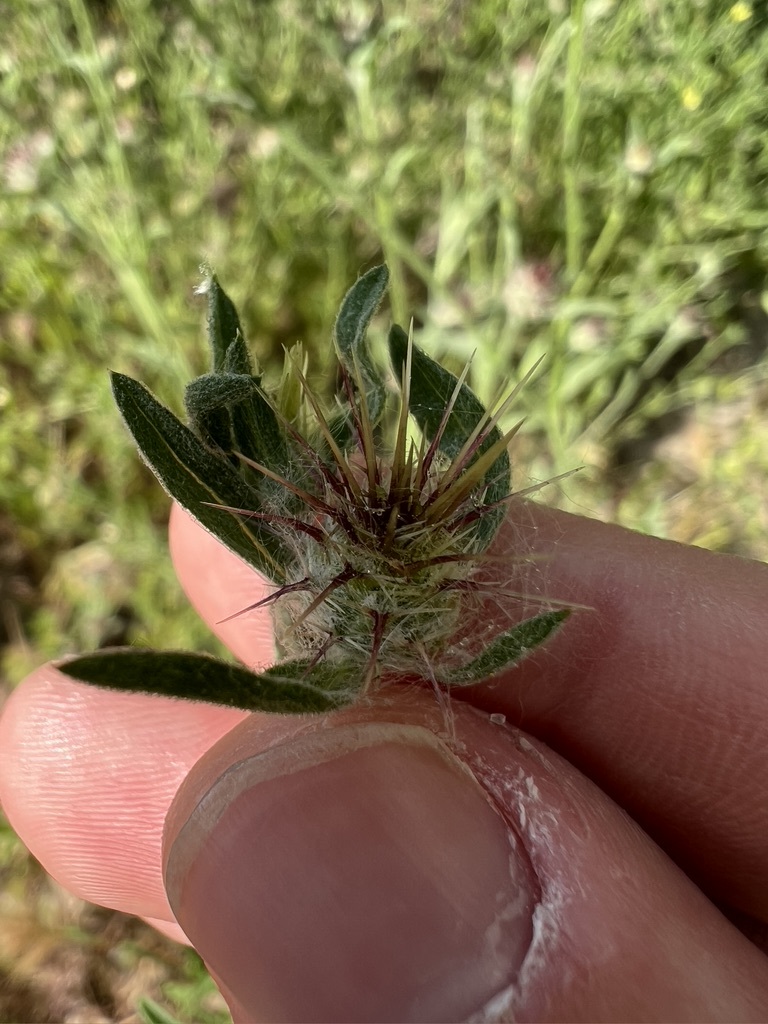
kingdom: Plantae
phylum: Tracheophyta
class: Magnoliopsida
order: Asterales
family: Asteraceae
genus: Centaurea
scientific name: Centaurea melitensis
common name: Maltese star-thistle
